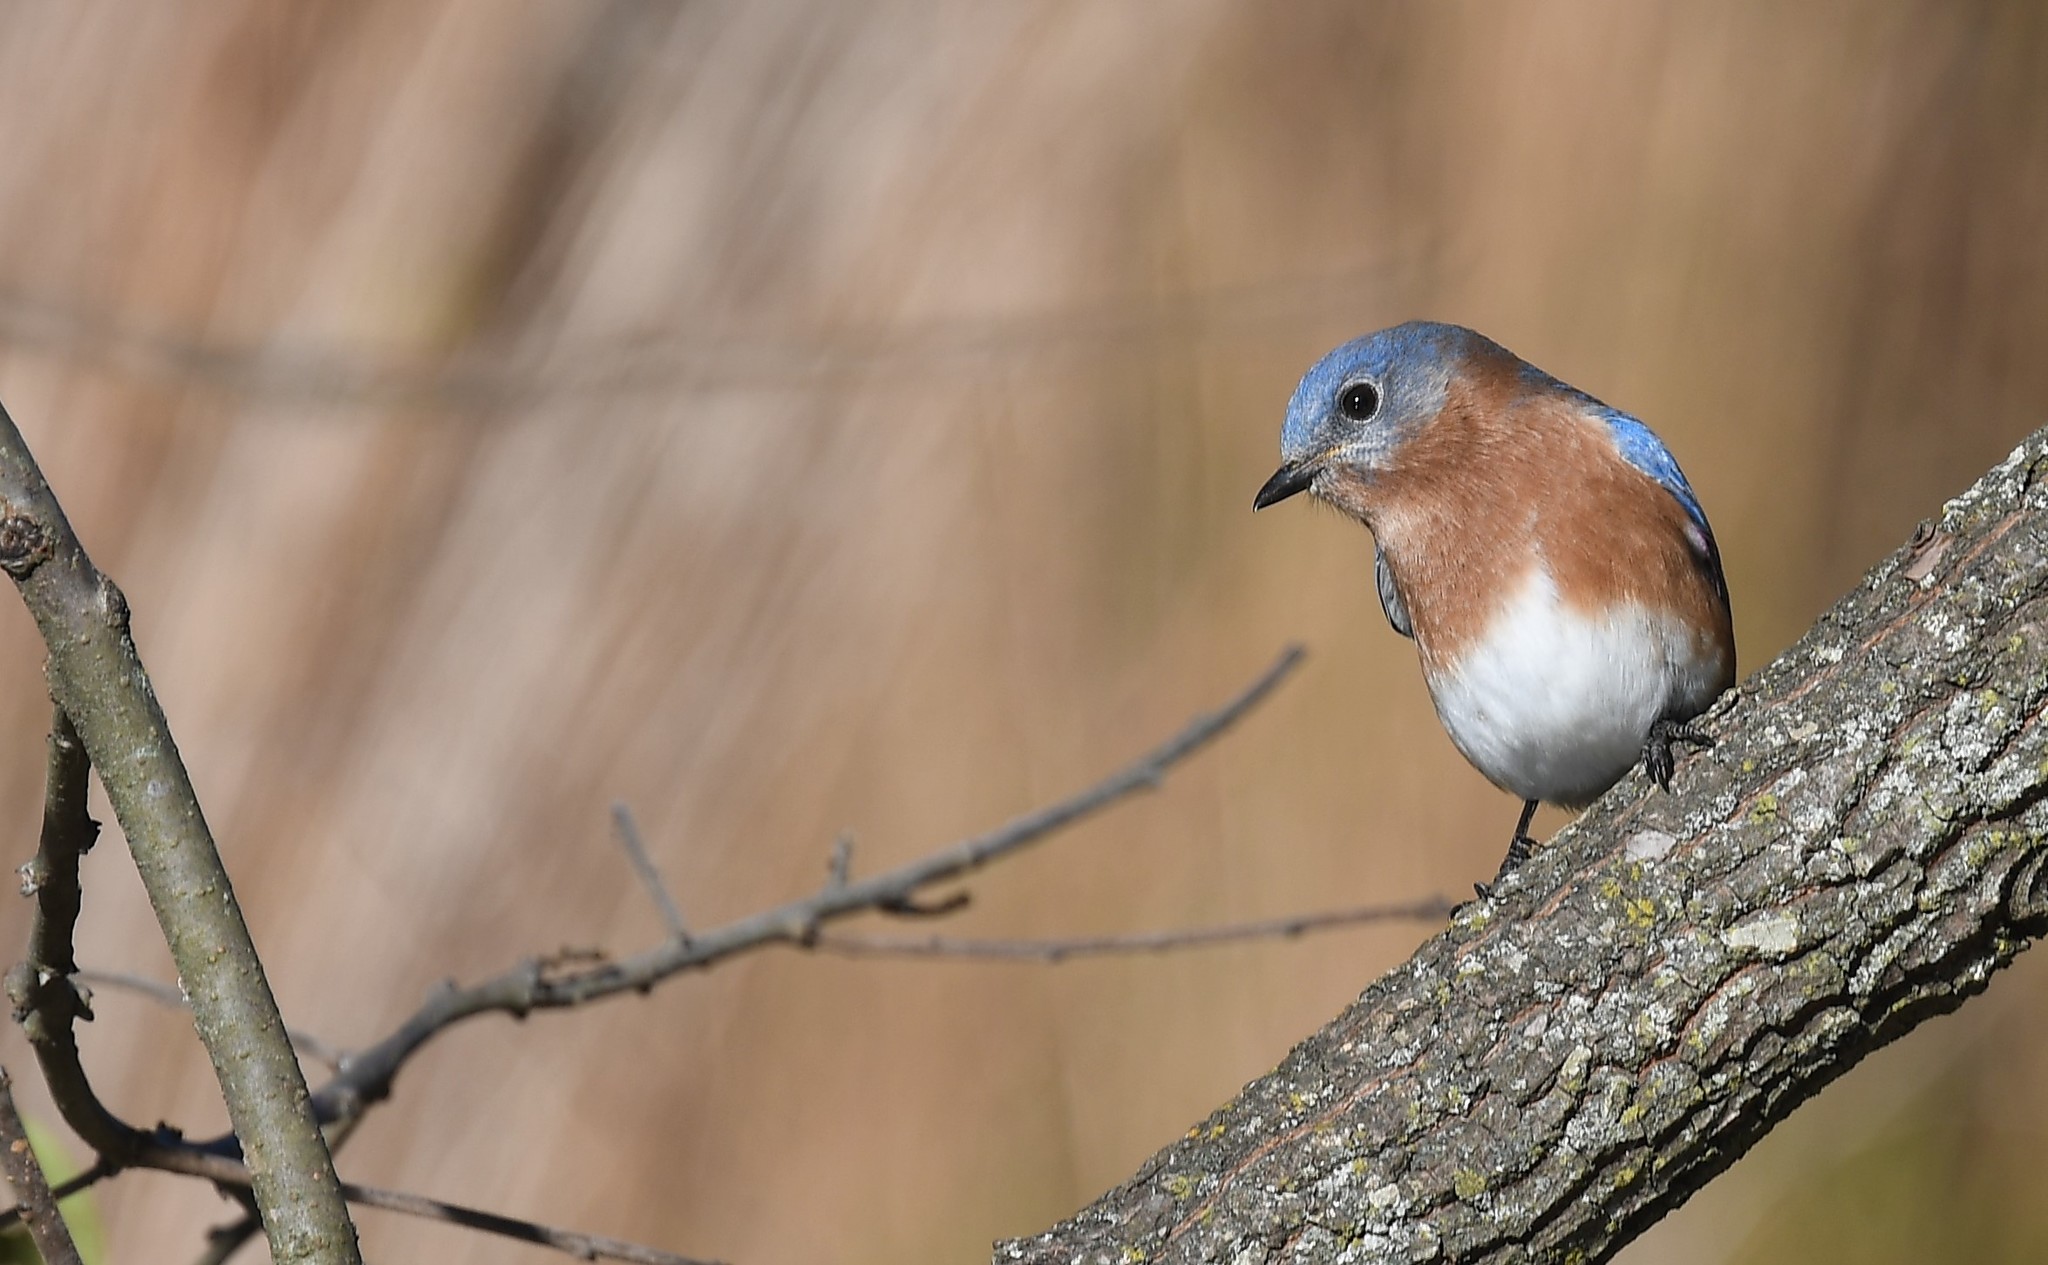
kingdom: Animalia
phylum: Chordata
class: Aves
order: Passeriformes
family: Turdidae
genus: Sialia
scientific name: Sialia sialis
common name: Eastern bluebird
